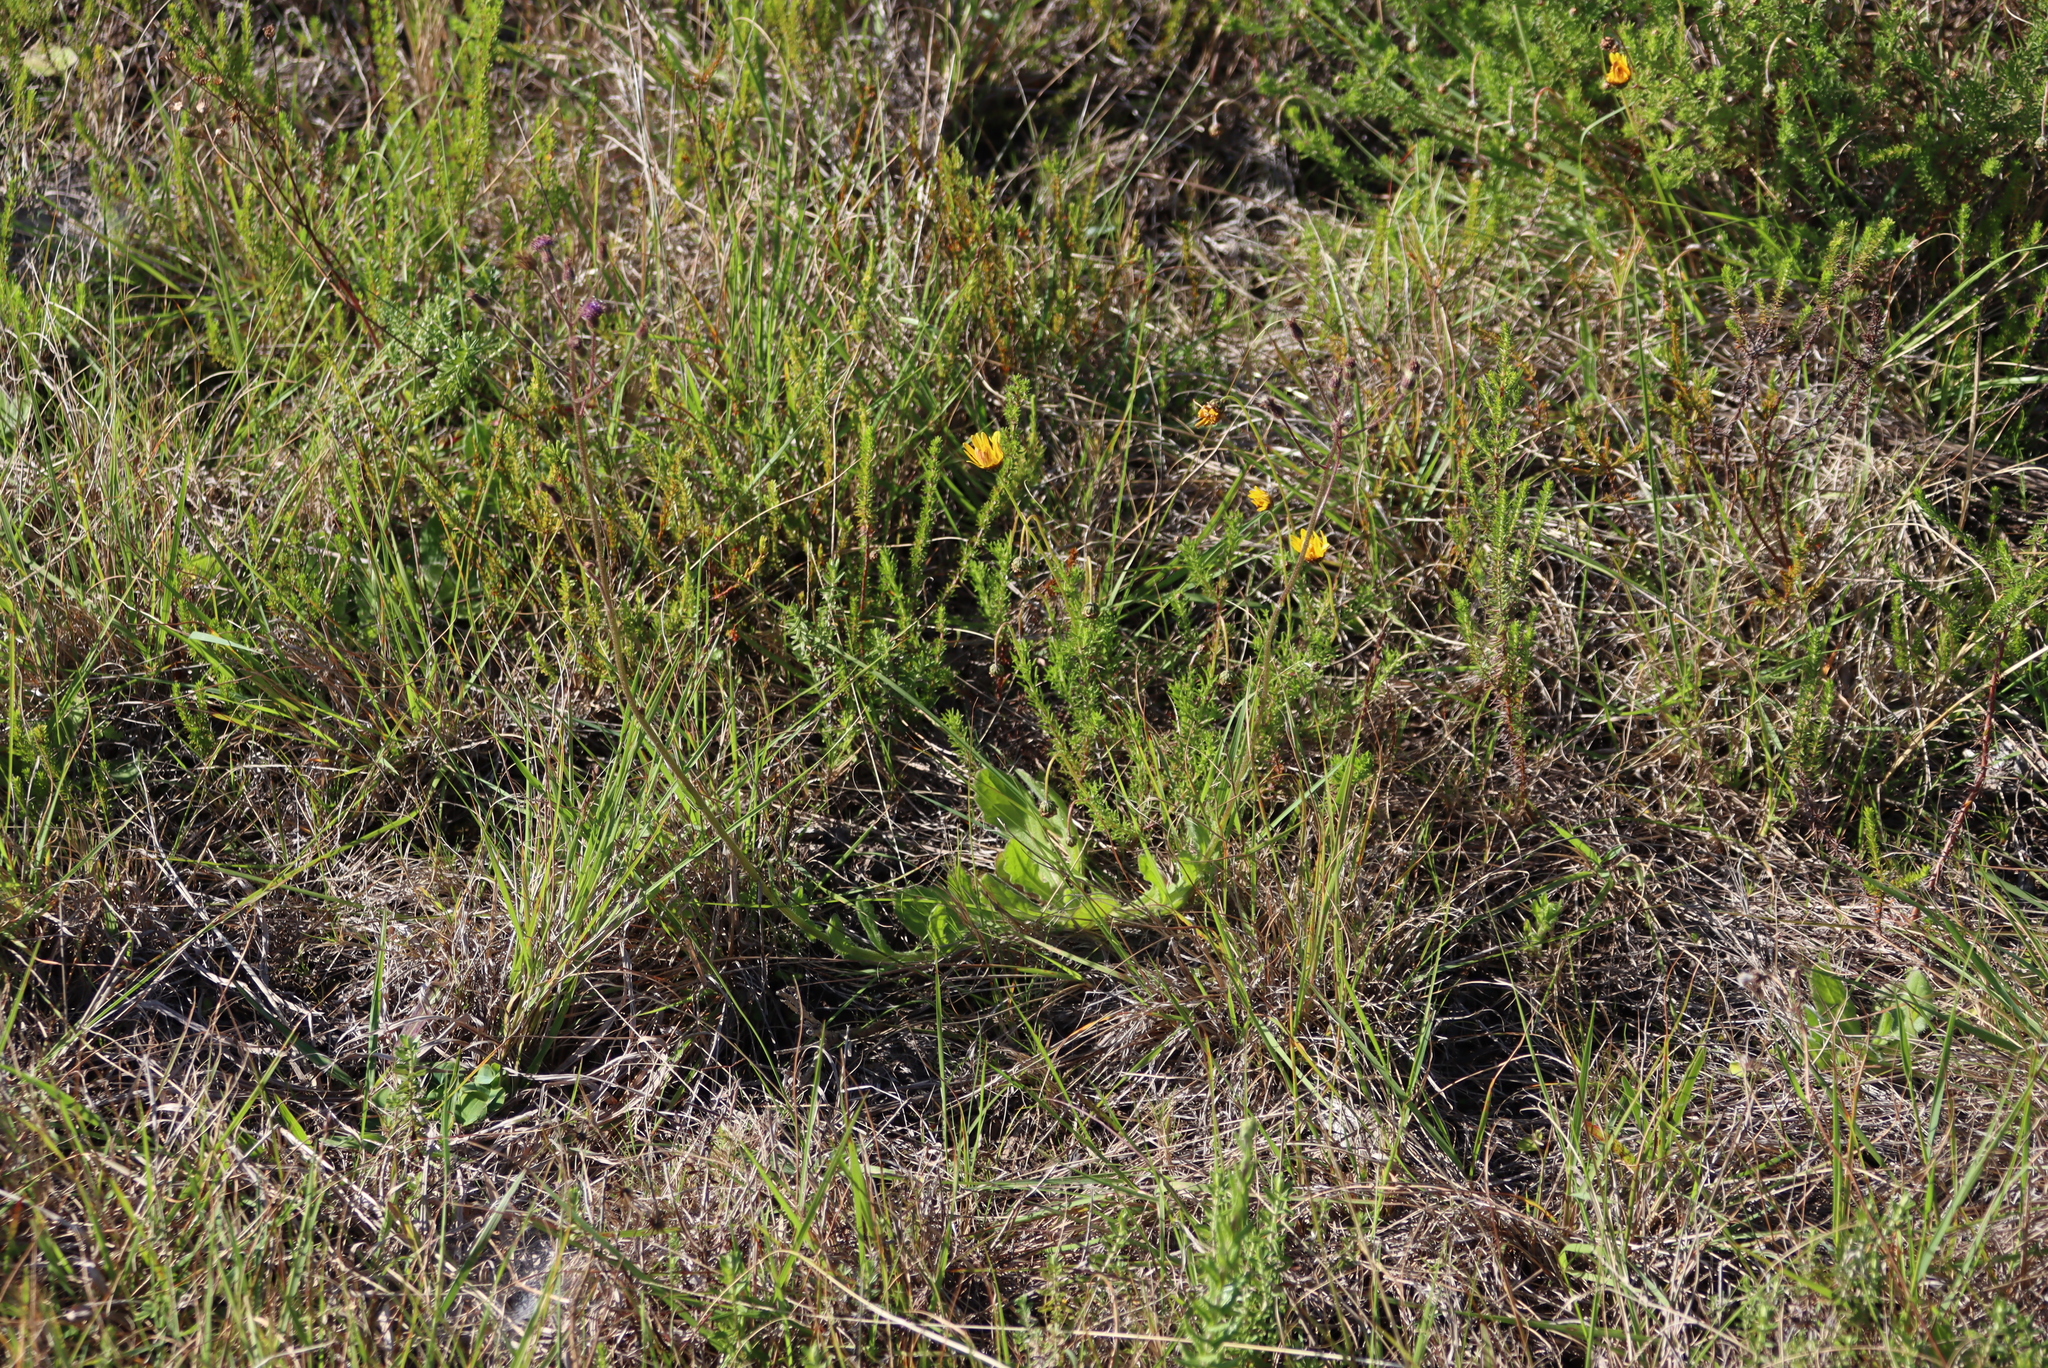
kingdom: Plantae
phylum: Tracheophyta
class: Magnoliopsida
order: Asterales
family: Asteraceae
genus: Senecio
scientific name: Senecio purpureus
